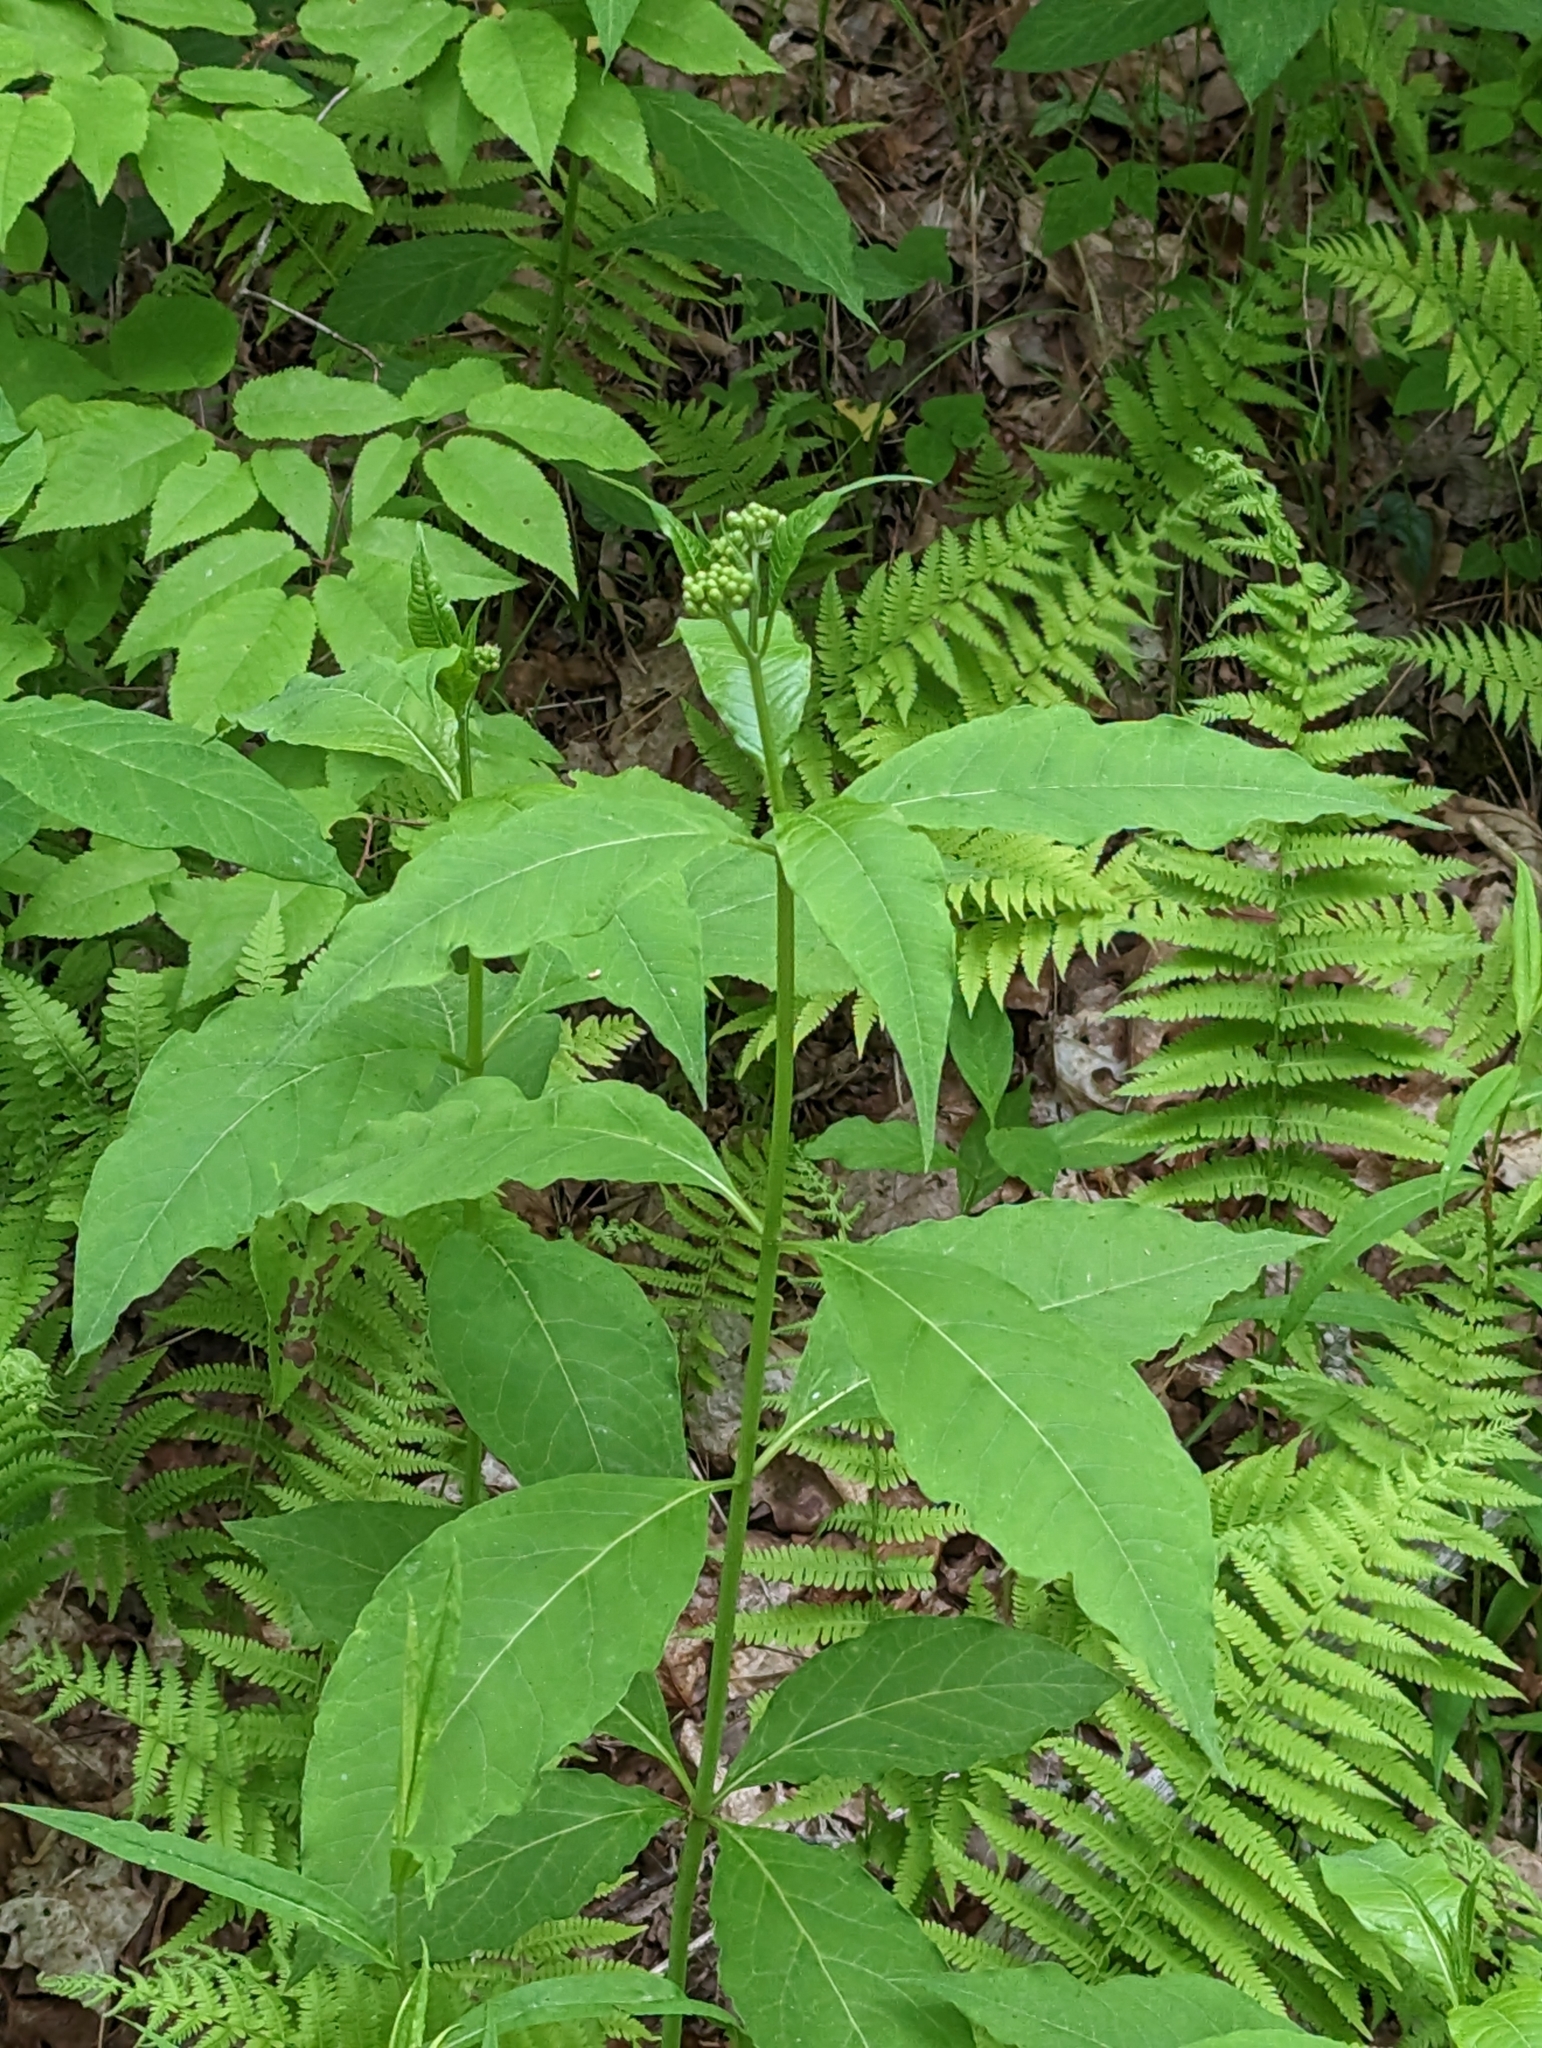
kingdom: Plantae
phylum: Tracheophyta
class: Magnoliopsida
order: Gentianales
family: Apocynaceae
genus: Asclepias
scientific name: Asclepias exaltata
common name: Poke milkweed
